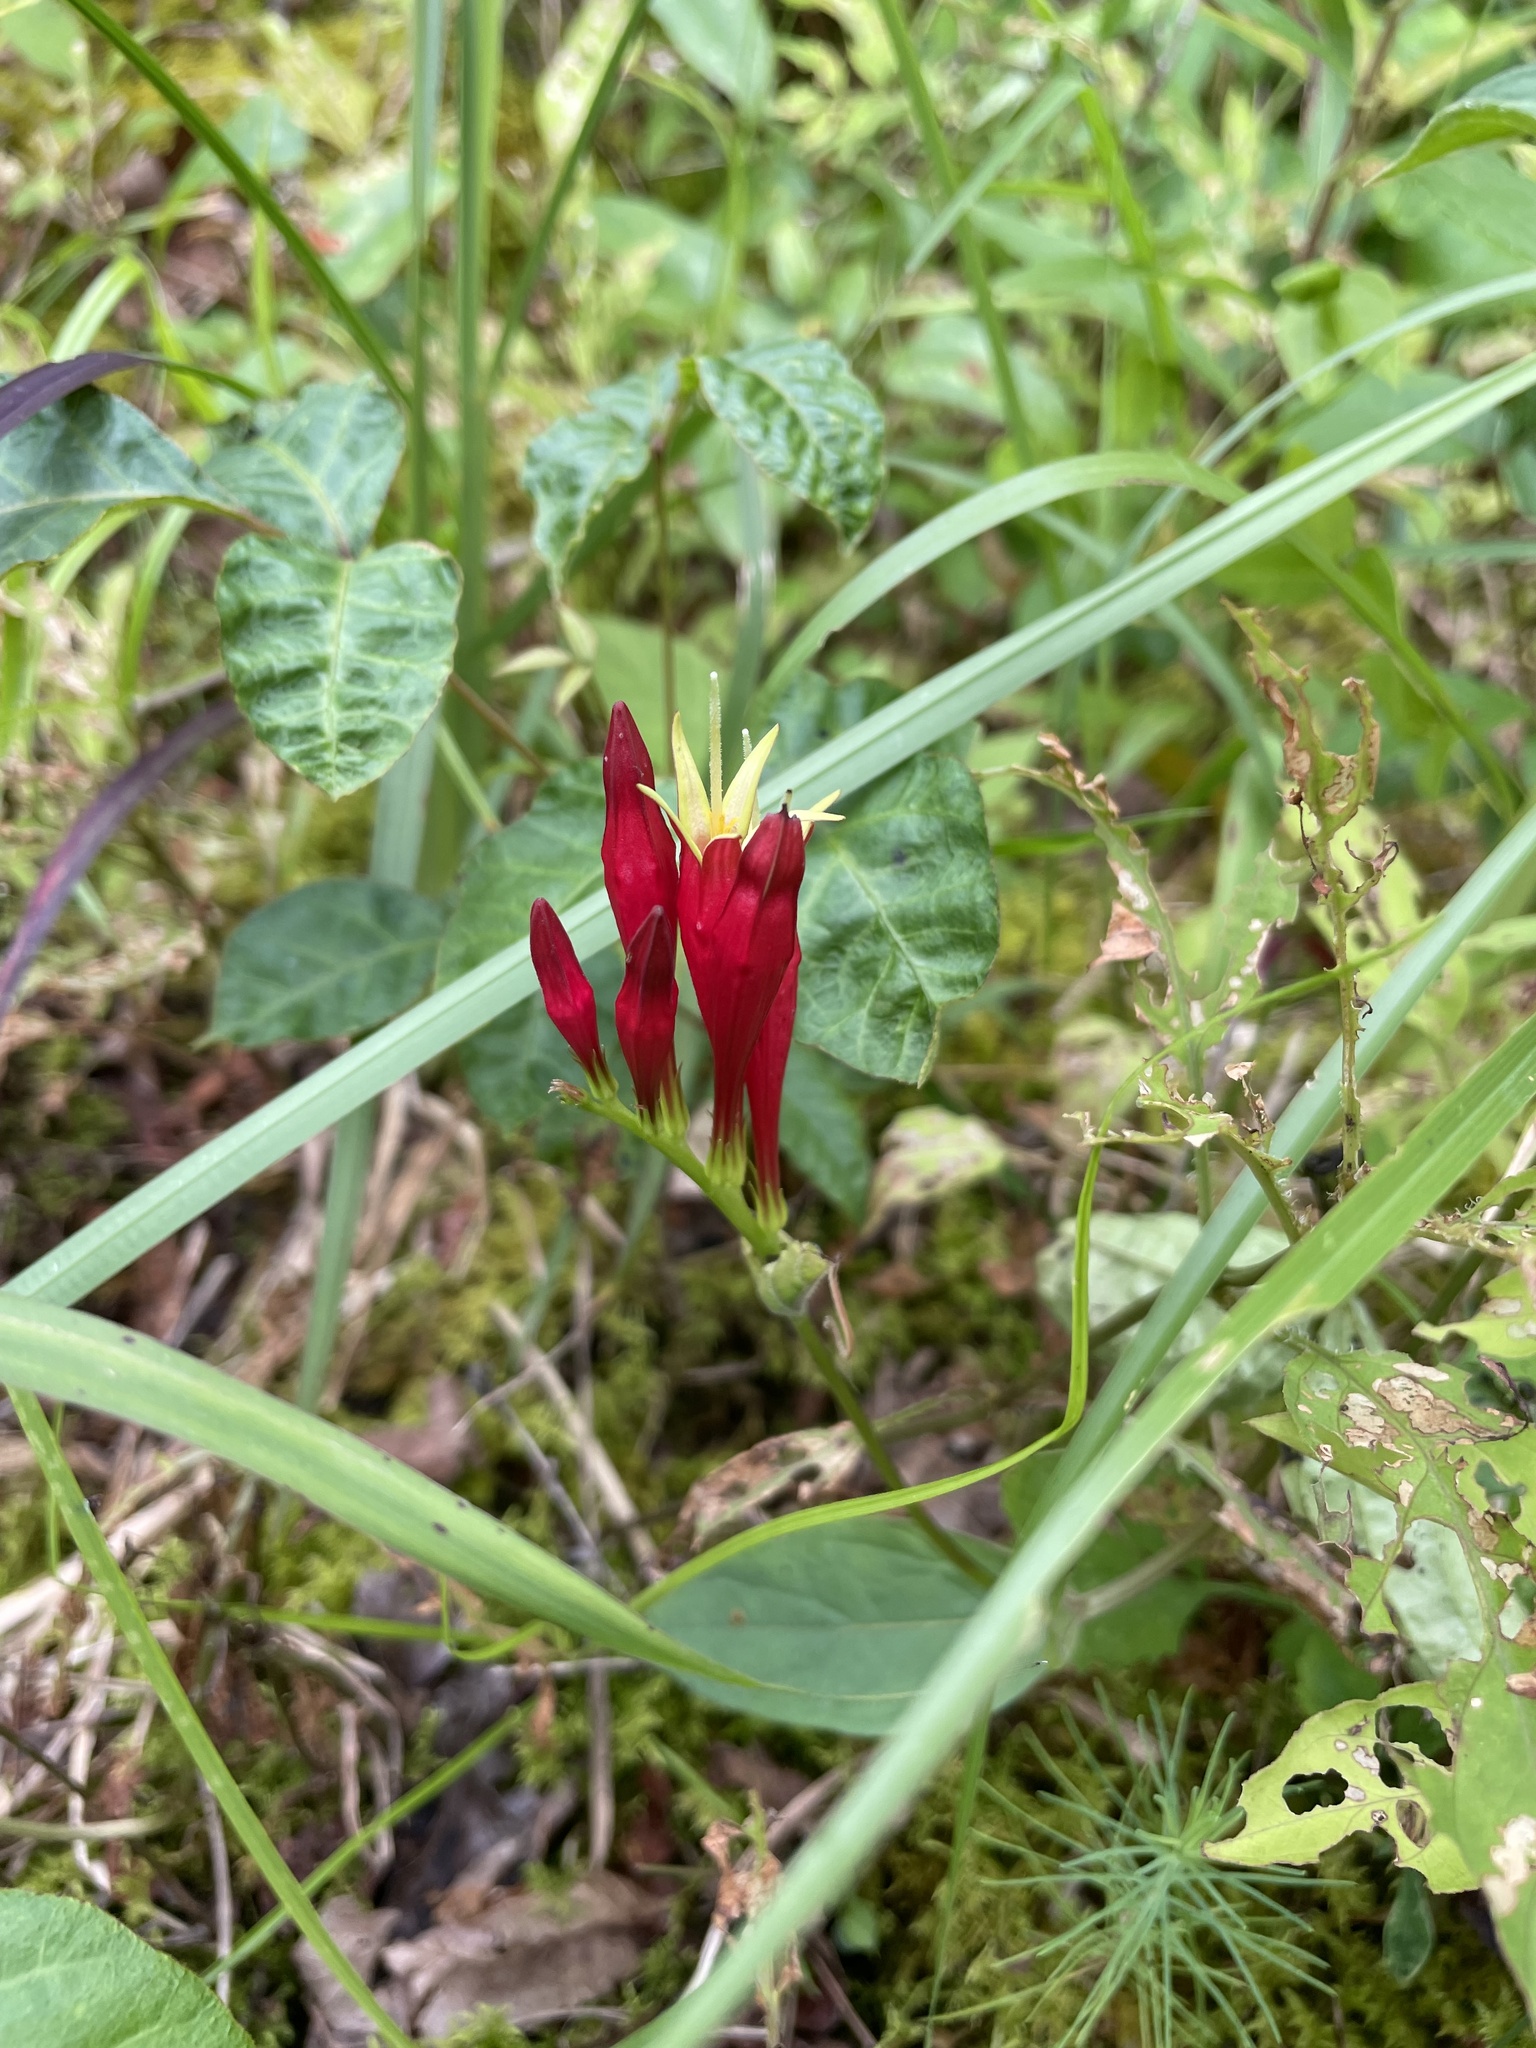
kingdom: Plantae
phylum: Tracheophyta
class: Magnoliopsida
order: Gentianales
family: Loganiaceae
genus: Spigelia
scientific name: Spigelia marilandica
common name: Indian-pink
